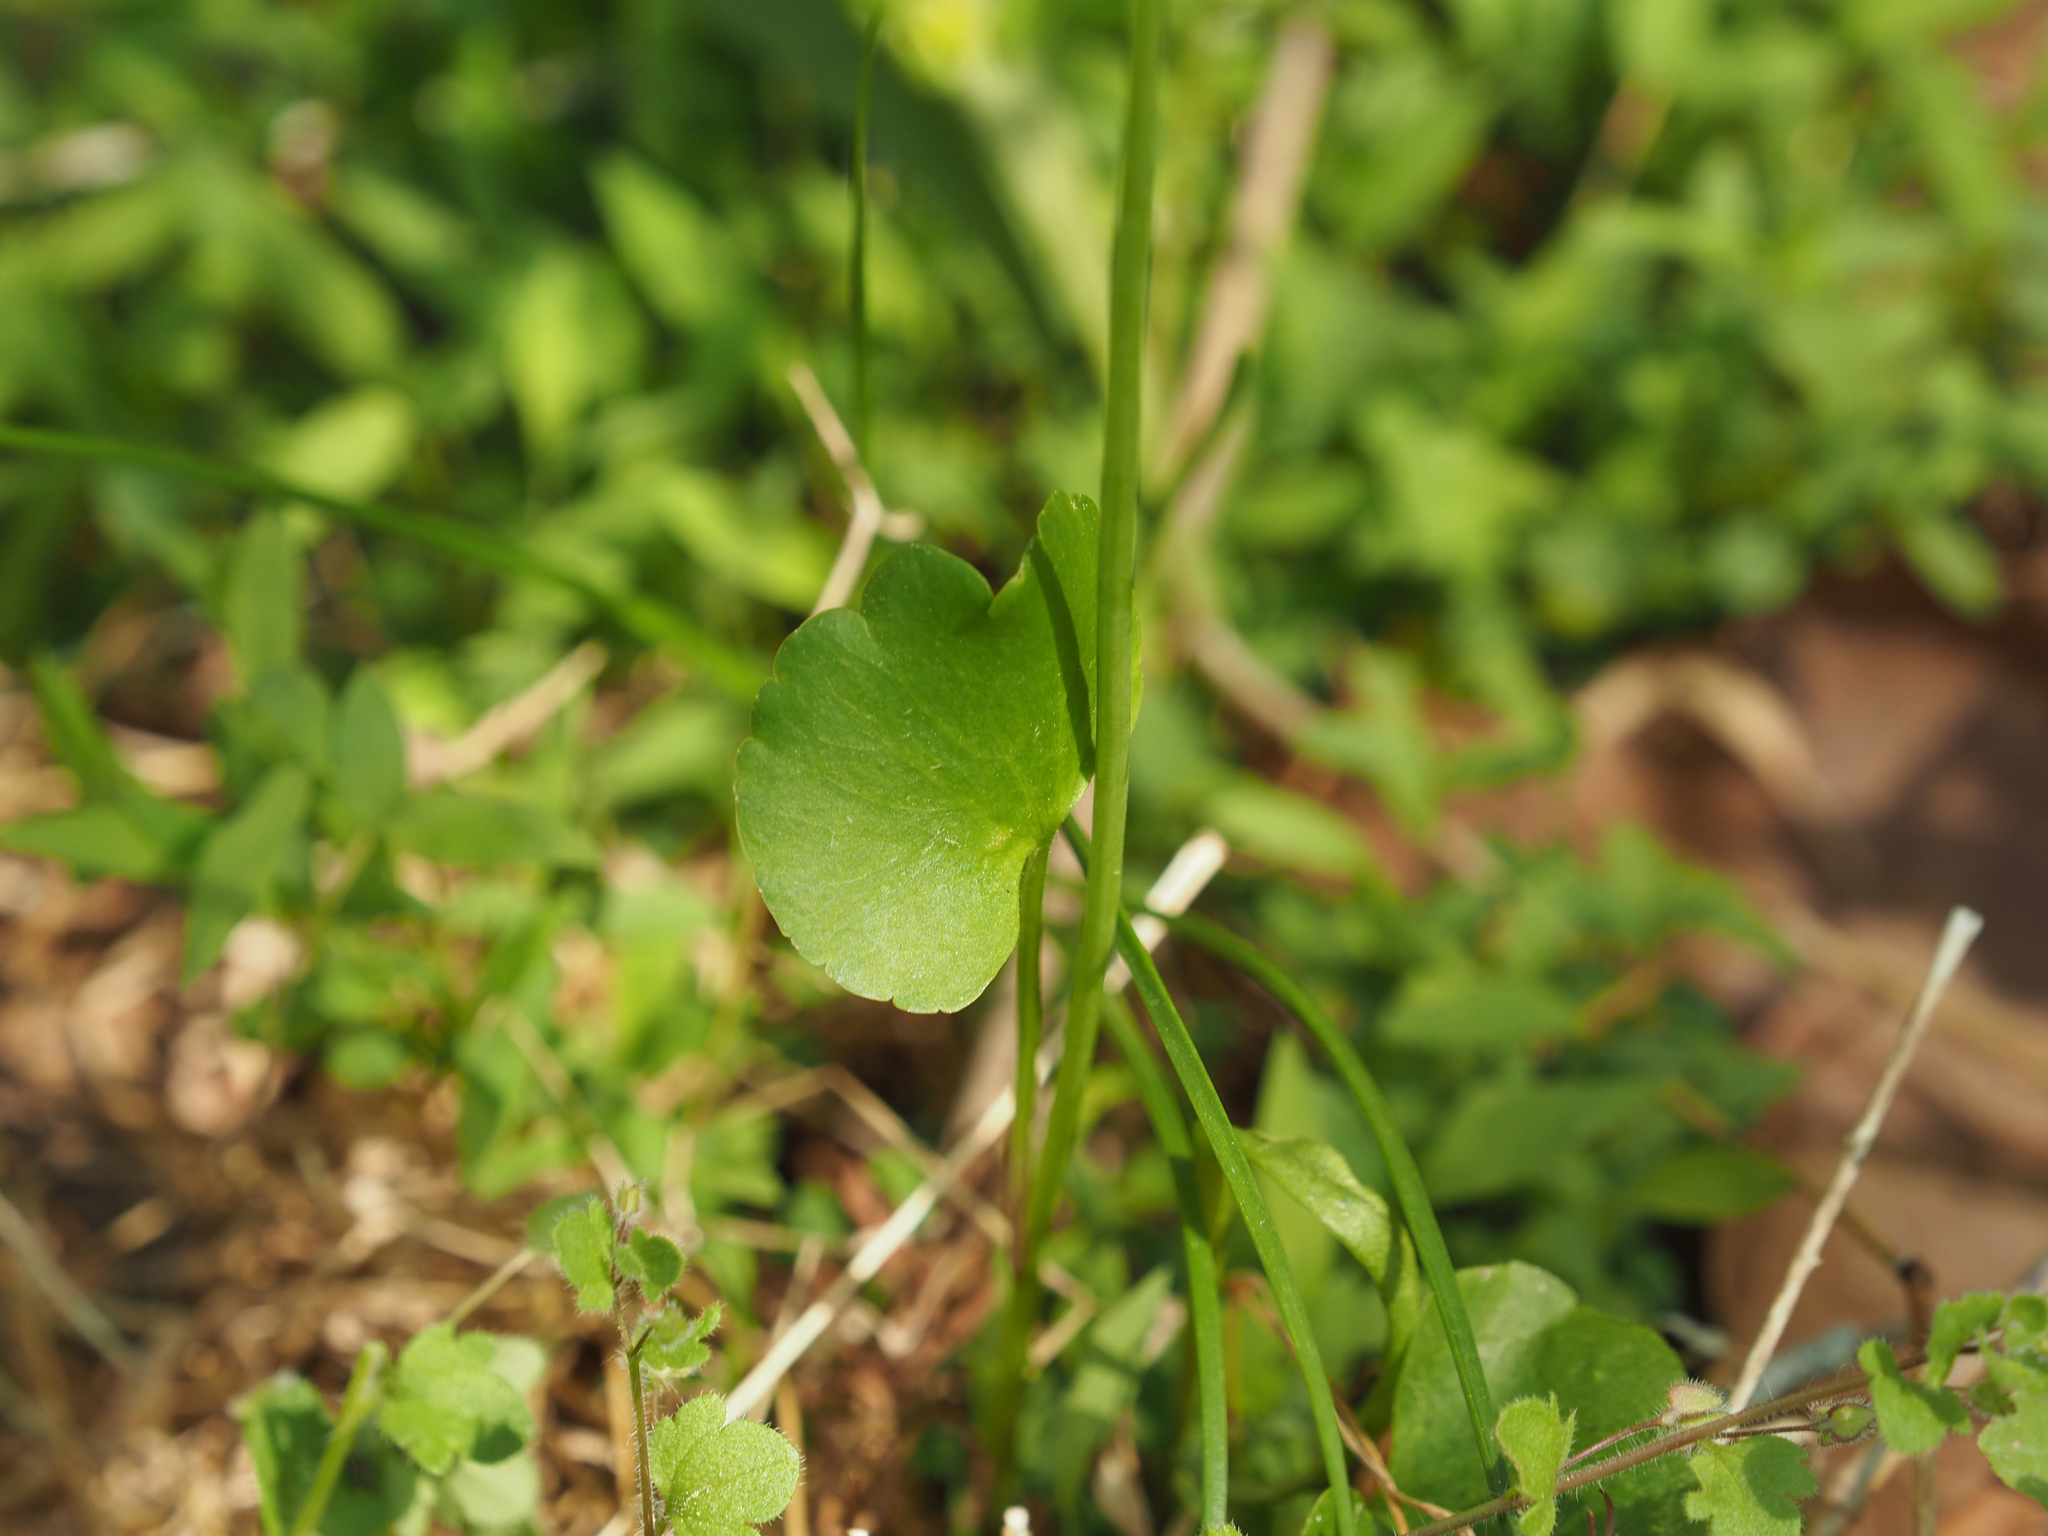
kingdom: Plantae
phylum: Tracheophyta
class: Magnoliopsida
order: Ranunculales
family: Ranunculaceae
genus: Ranunculus
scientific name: Ranunculus abortivus
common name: Early wood buttercup
